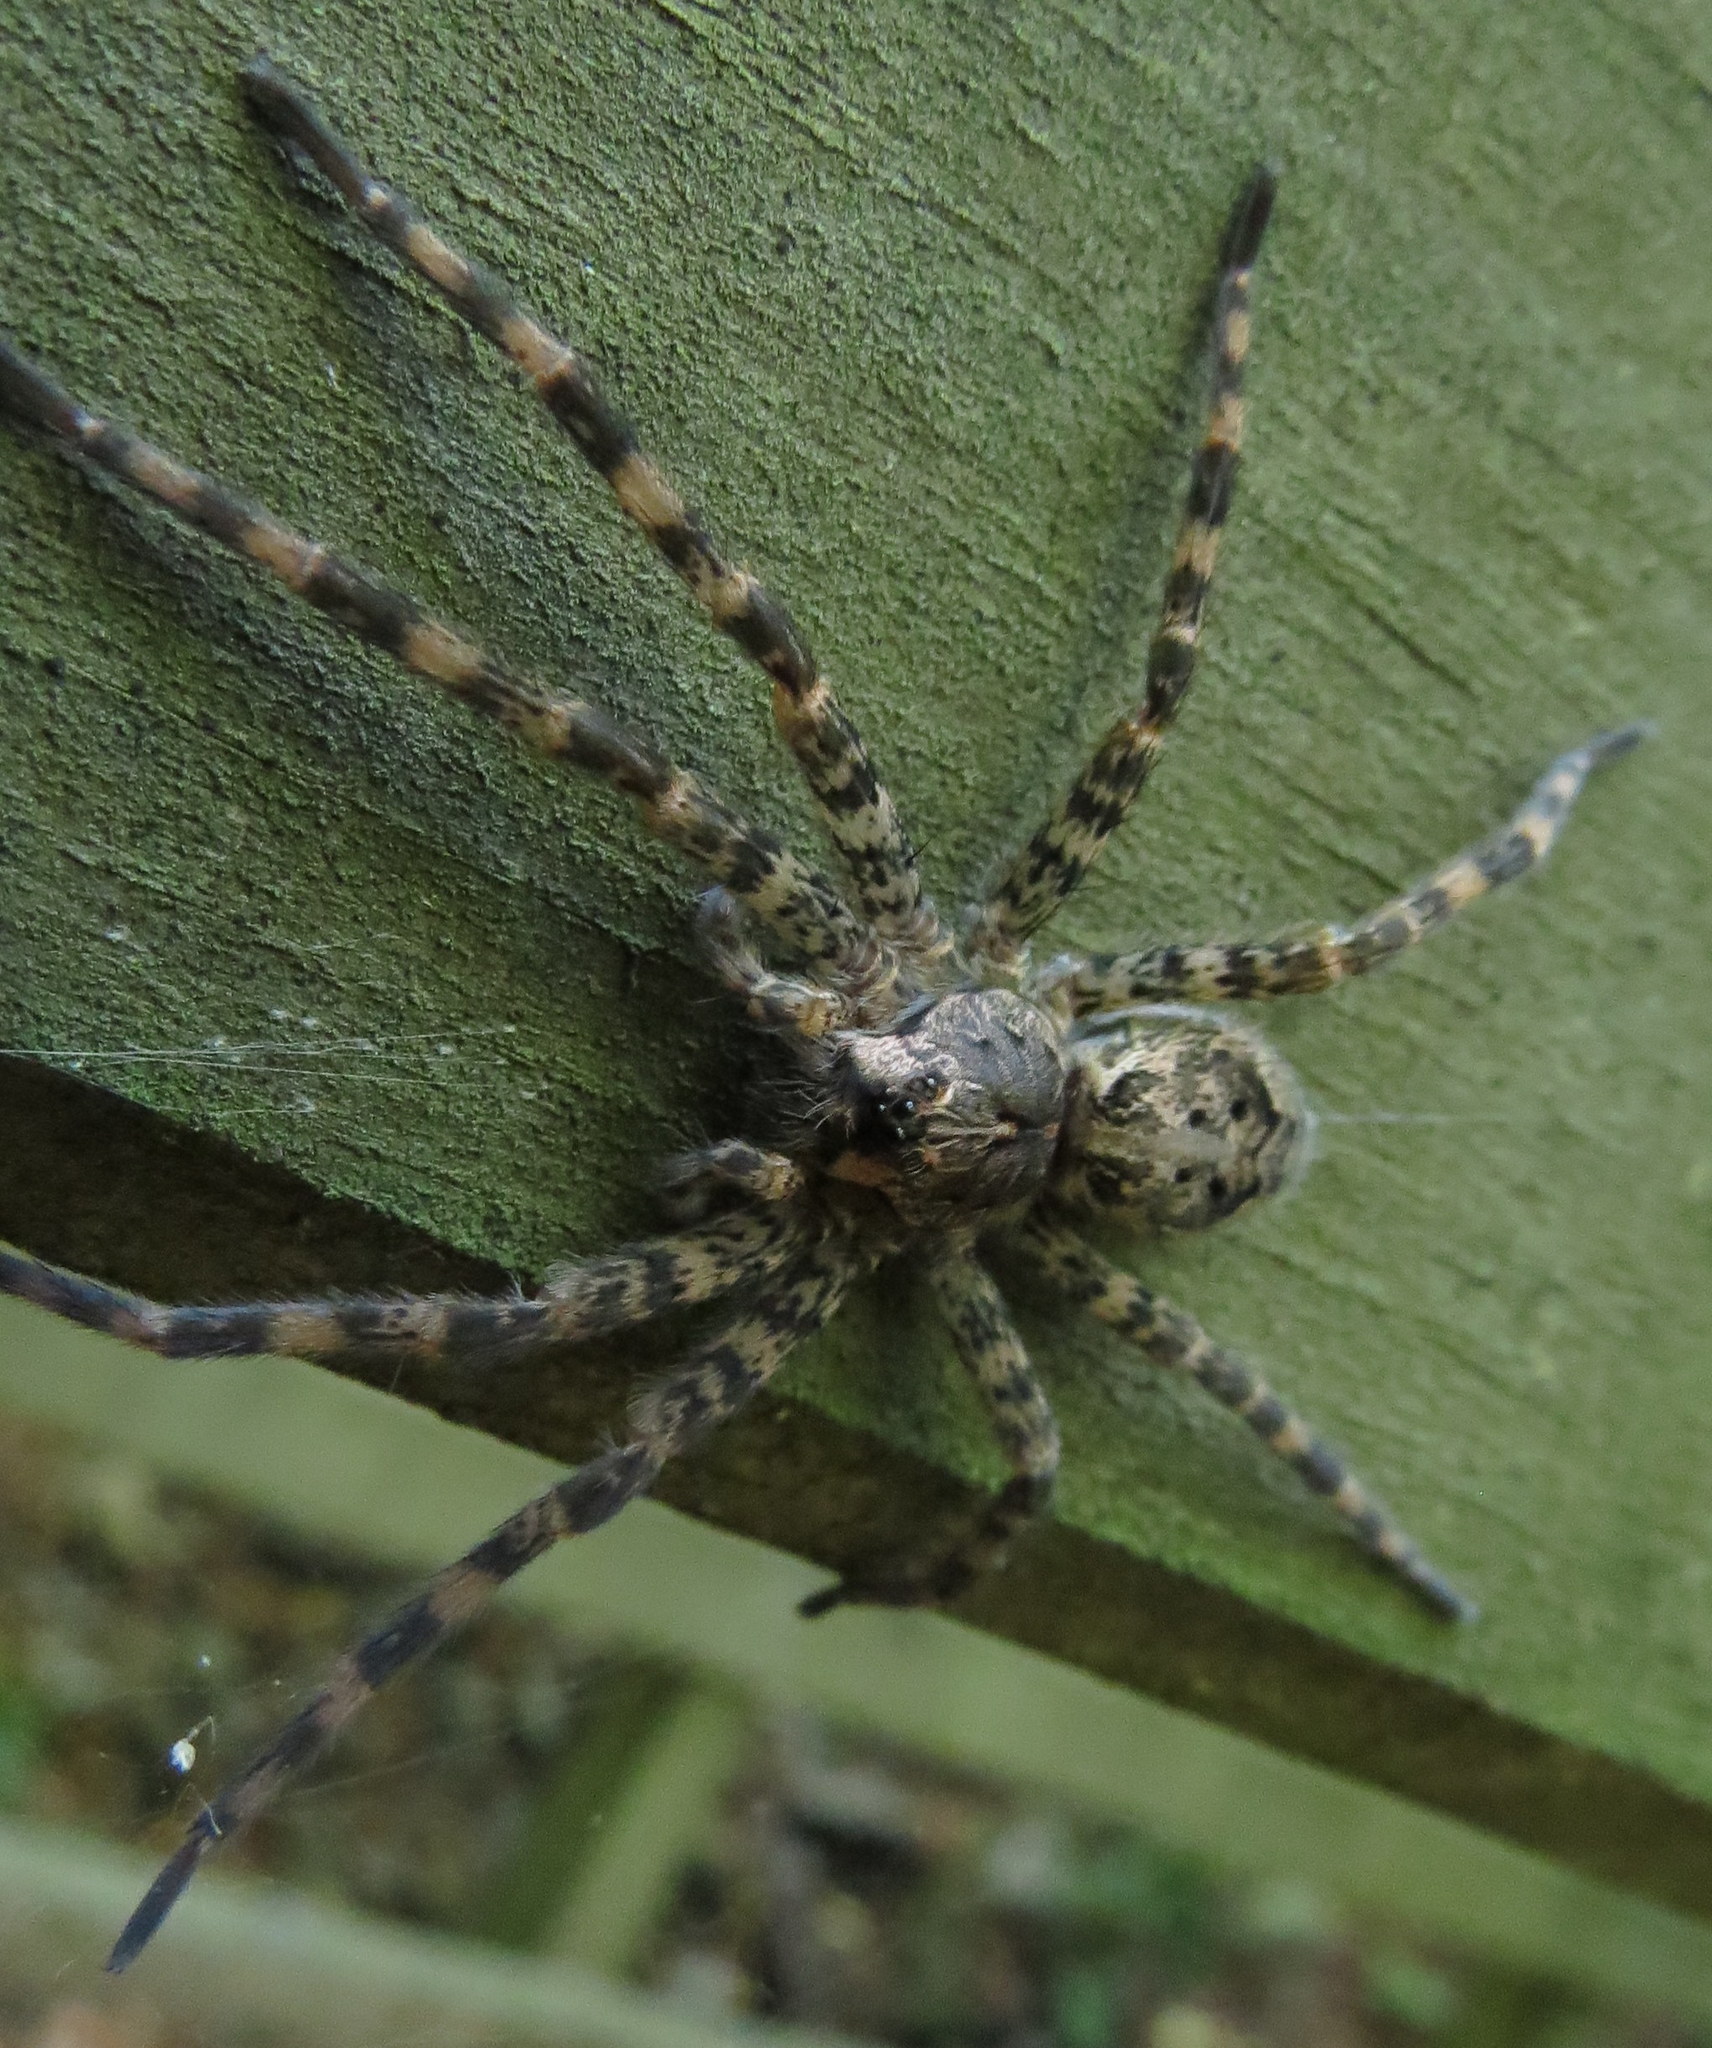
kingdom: Animalia
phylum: Arthropoda
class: Arachnida
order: Araneae
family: Pisauridae
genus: Dolomedes
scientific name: Dolomedes tenebrosus
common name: Dark fishing spider
